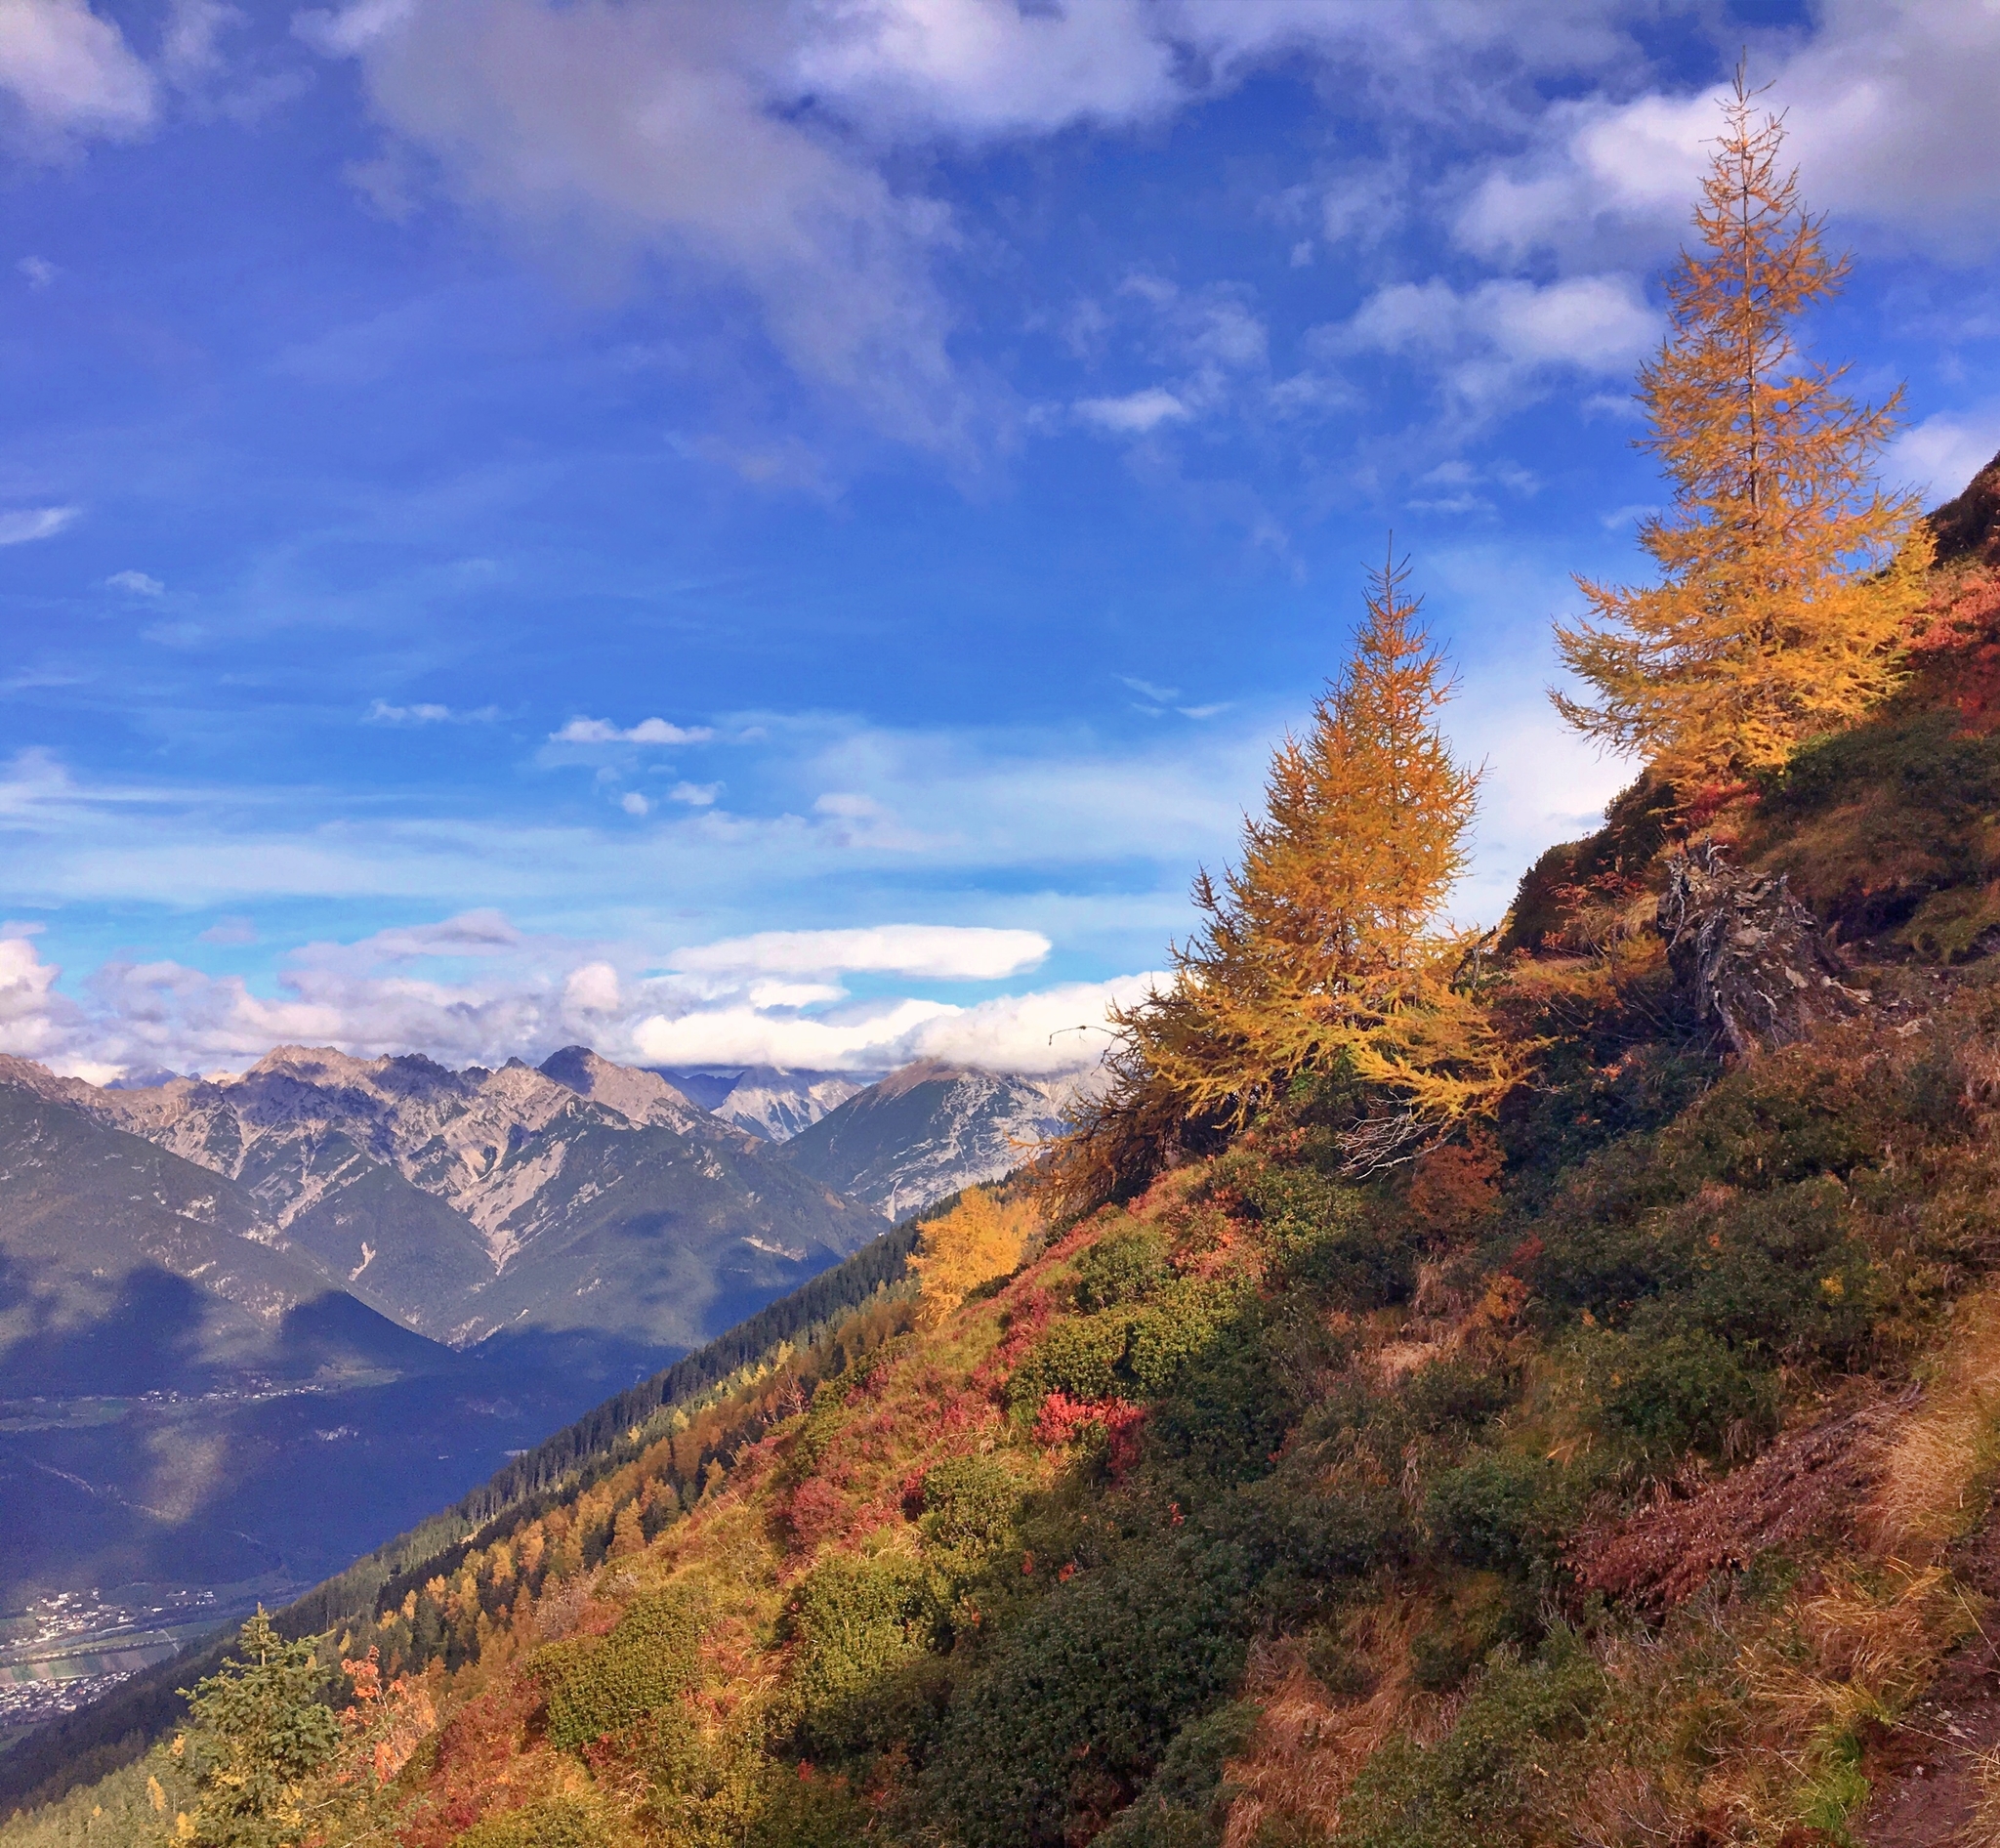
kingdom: Plantae
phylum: Tracheophyta
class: Pinopsida
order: Pinales
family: Pinaceae
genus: Larix
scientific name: Larix decidua
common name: European larch
